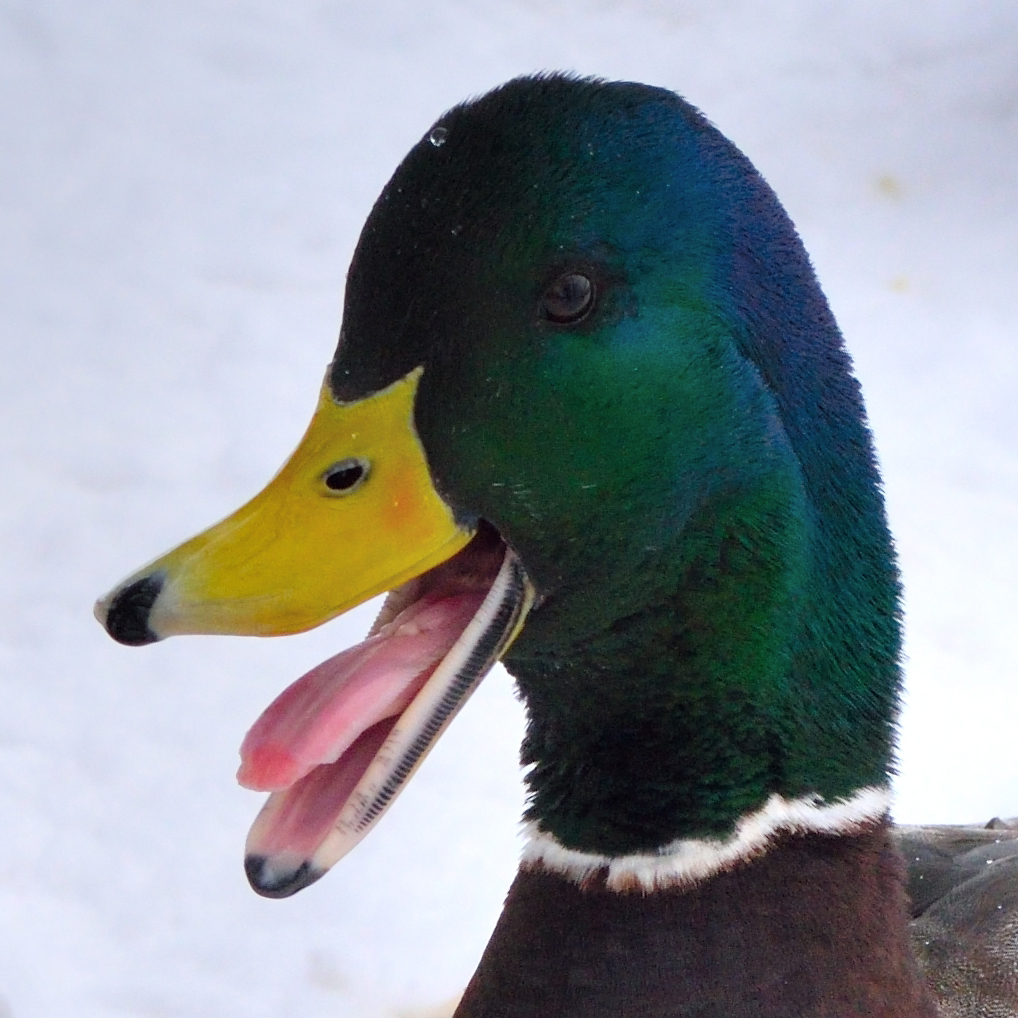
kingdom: Animalia
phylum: Chordata
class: Aves
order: Anseriformes
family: Anatidae
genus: Anas
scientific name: Anas platyrhynchos
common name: Mallard
